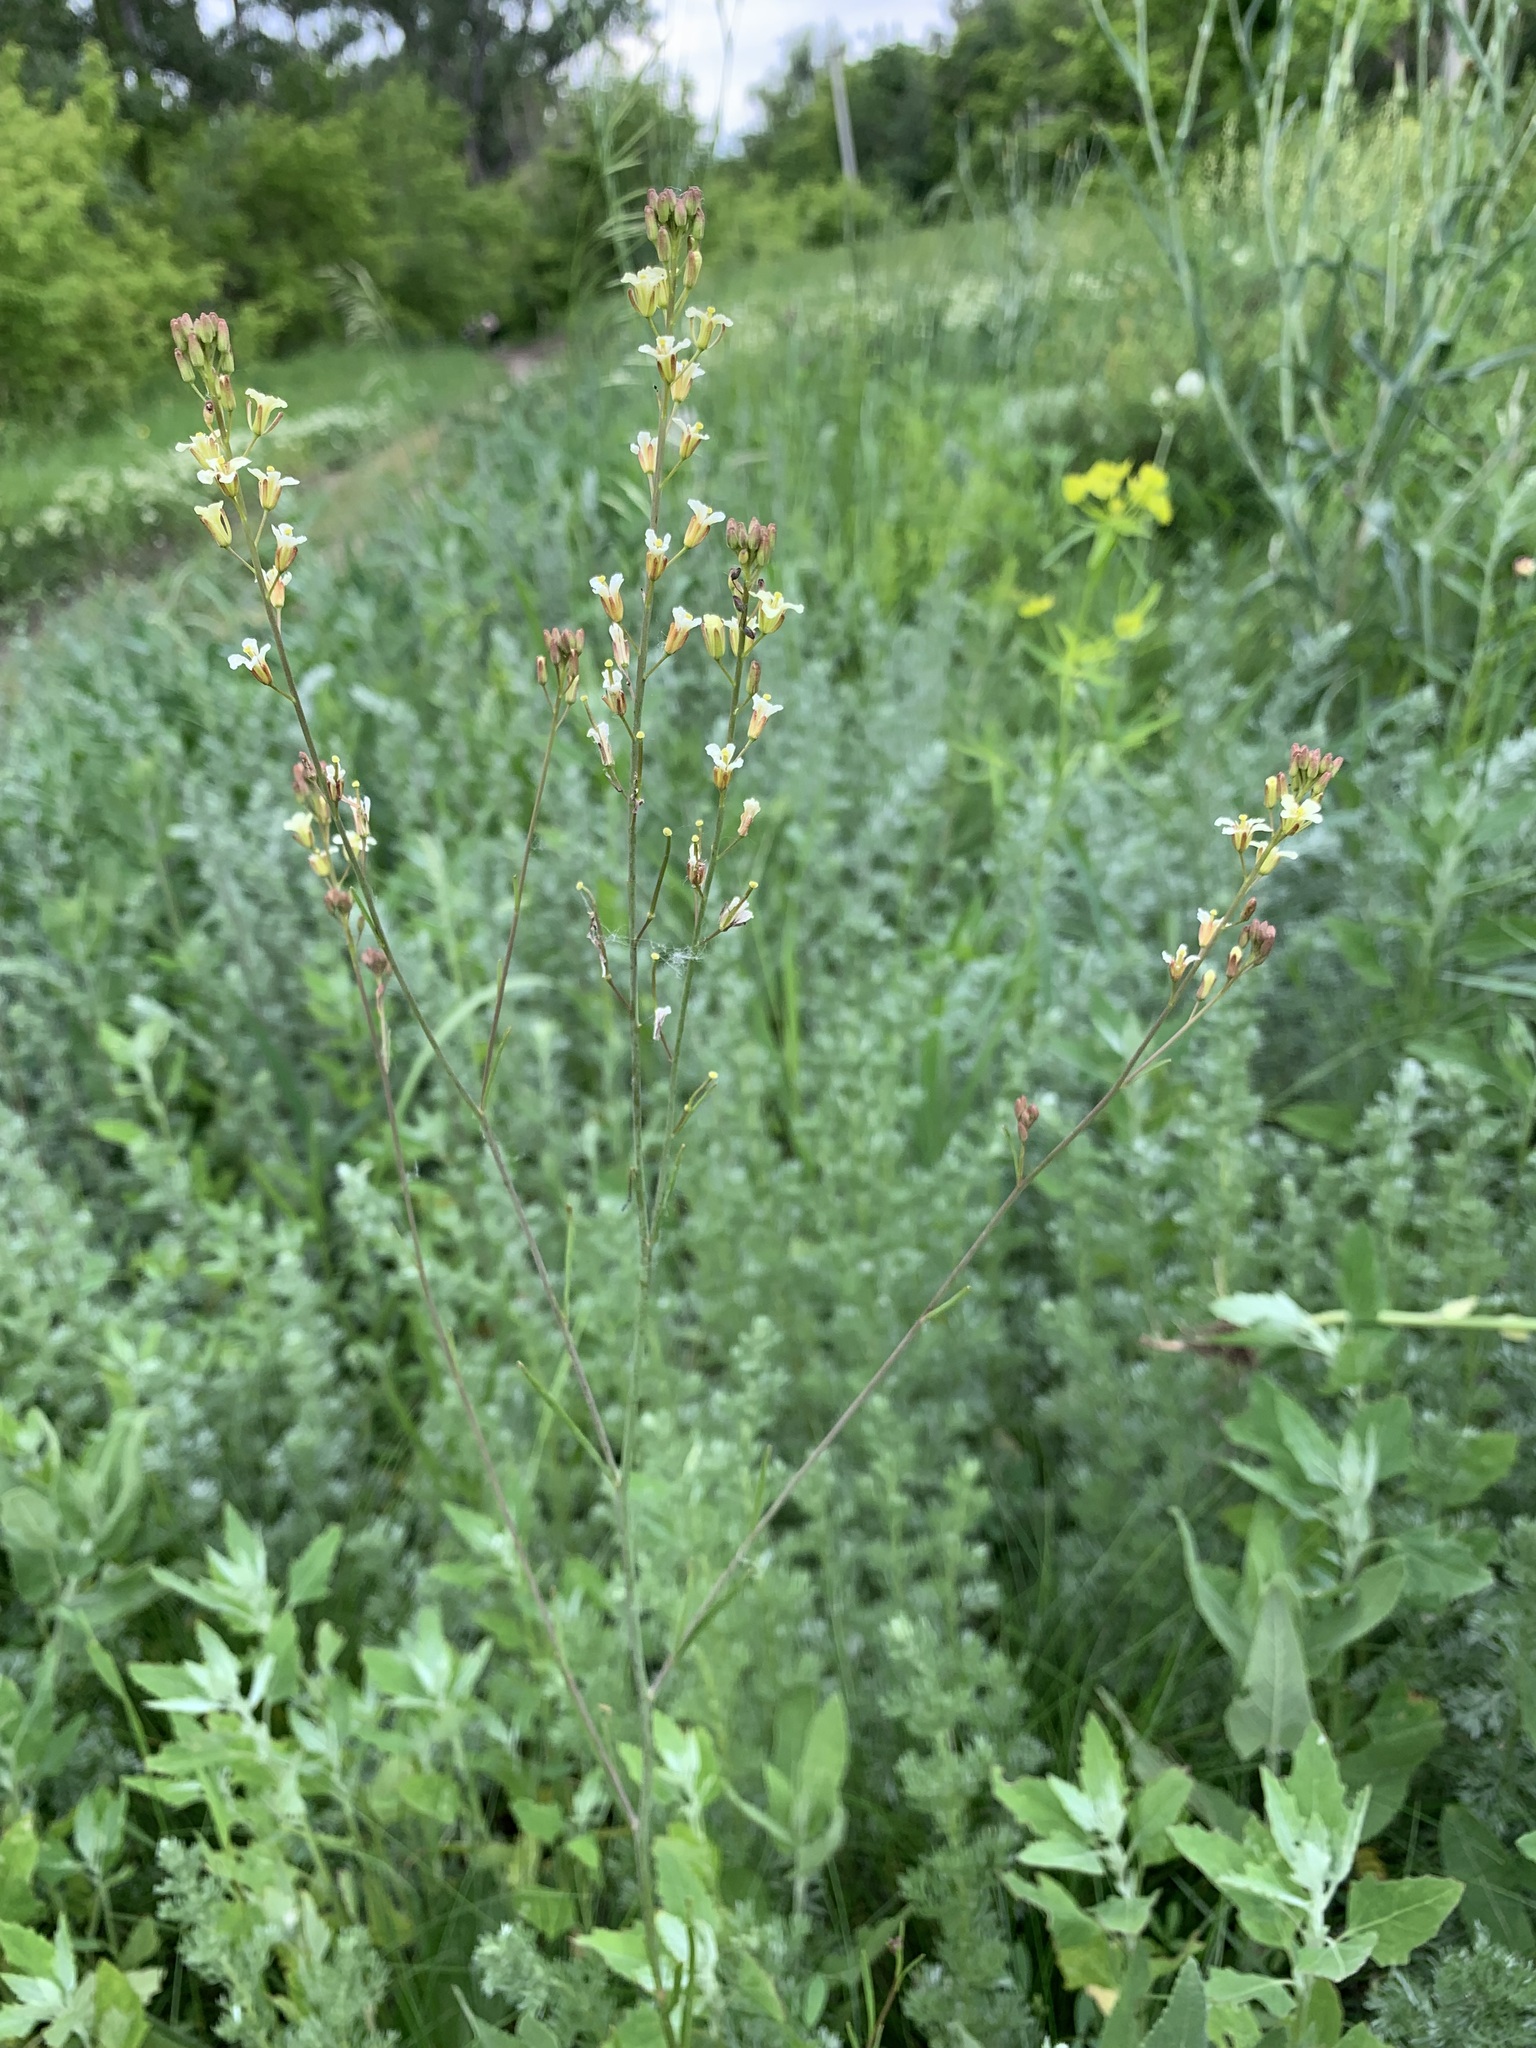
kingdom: Plantae
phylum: Tracheophyta
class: Magnoliopsida
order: Brassicales
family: Brassicaceae
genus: Sisymbrium
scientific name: Sisymbrium polymorphum
